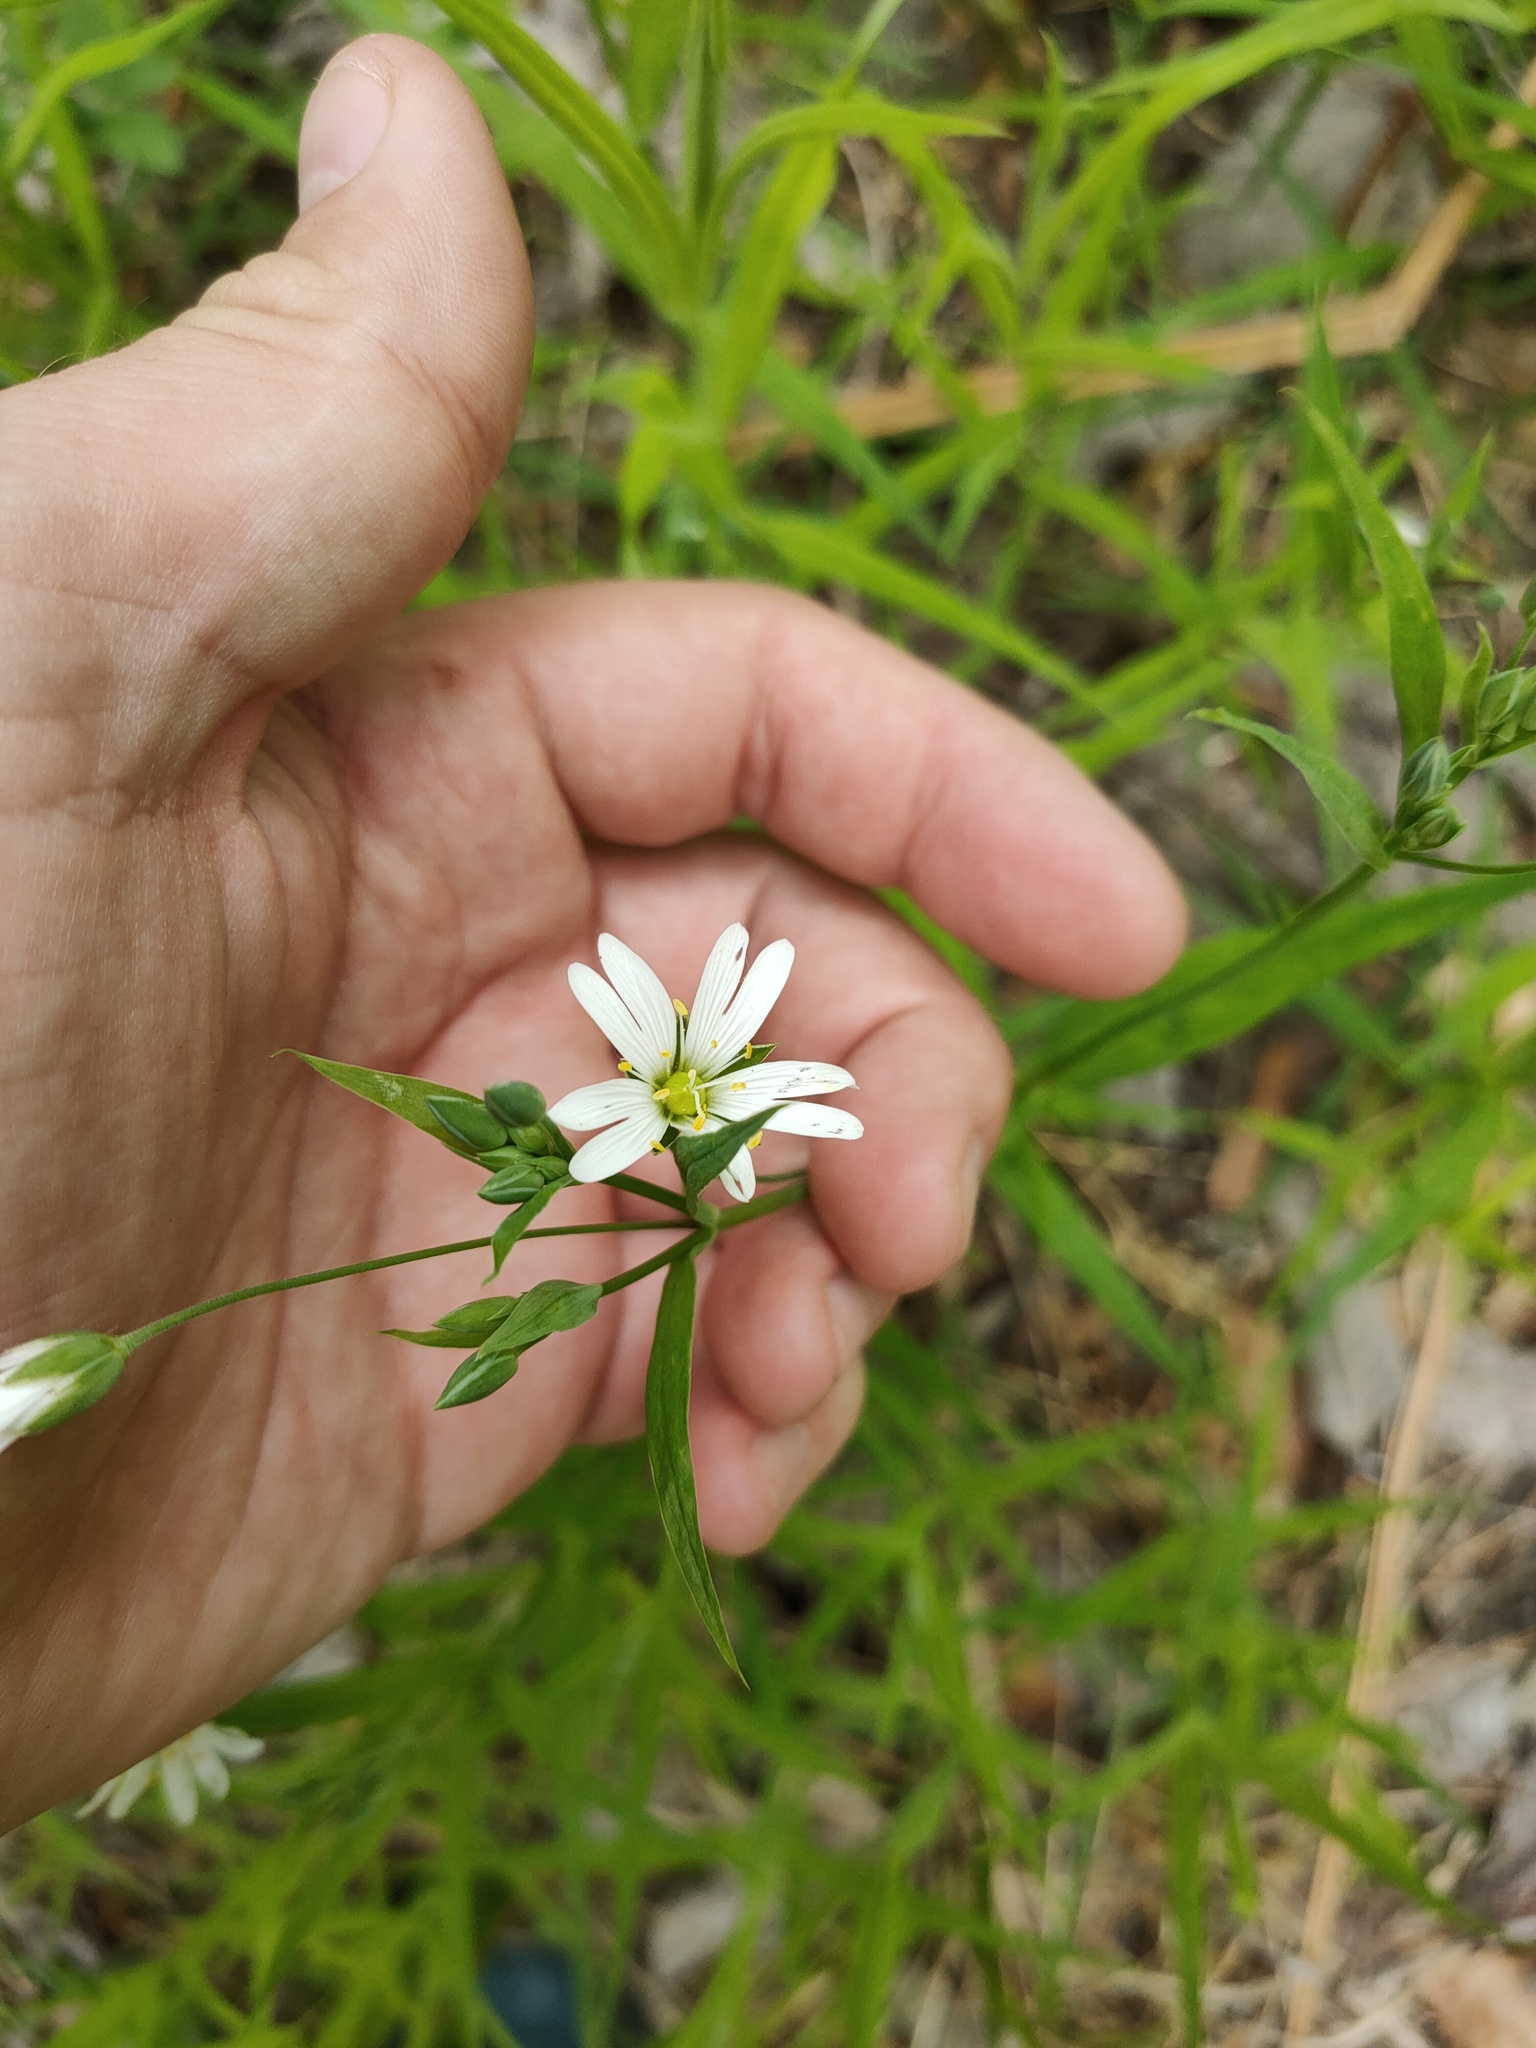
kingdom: Plantae
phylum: Tracheophyta
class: Magnoliopsida
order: Caryophyllales
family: Caryophyllaceae
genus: Rabelera
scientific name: Rabelera holostea
